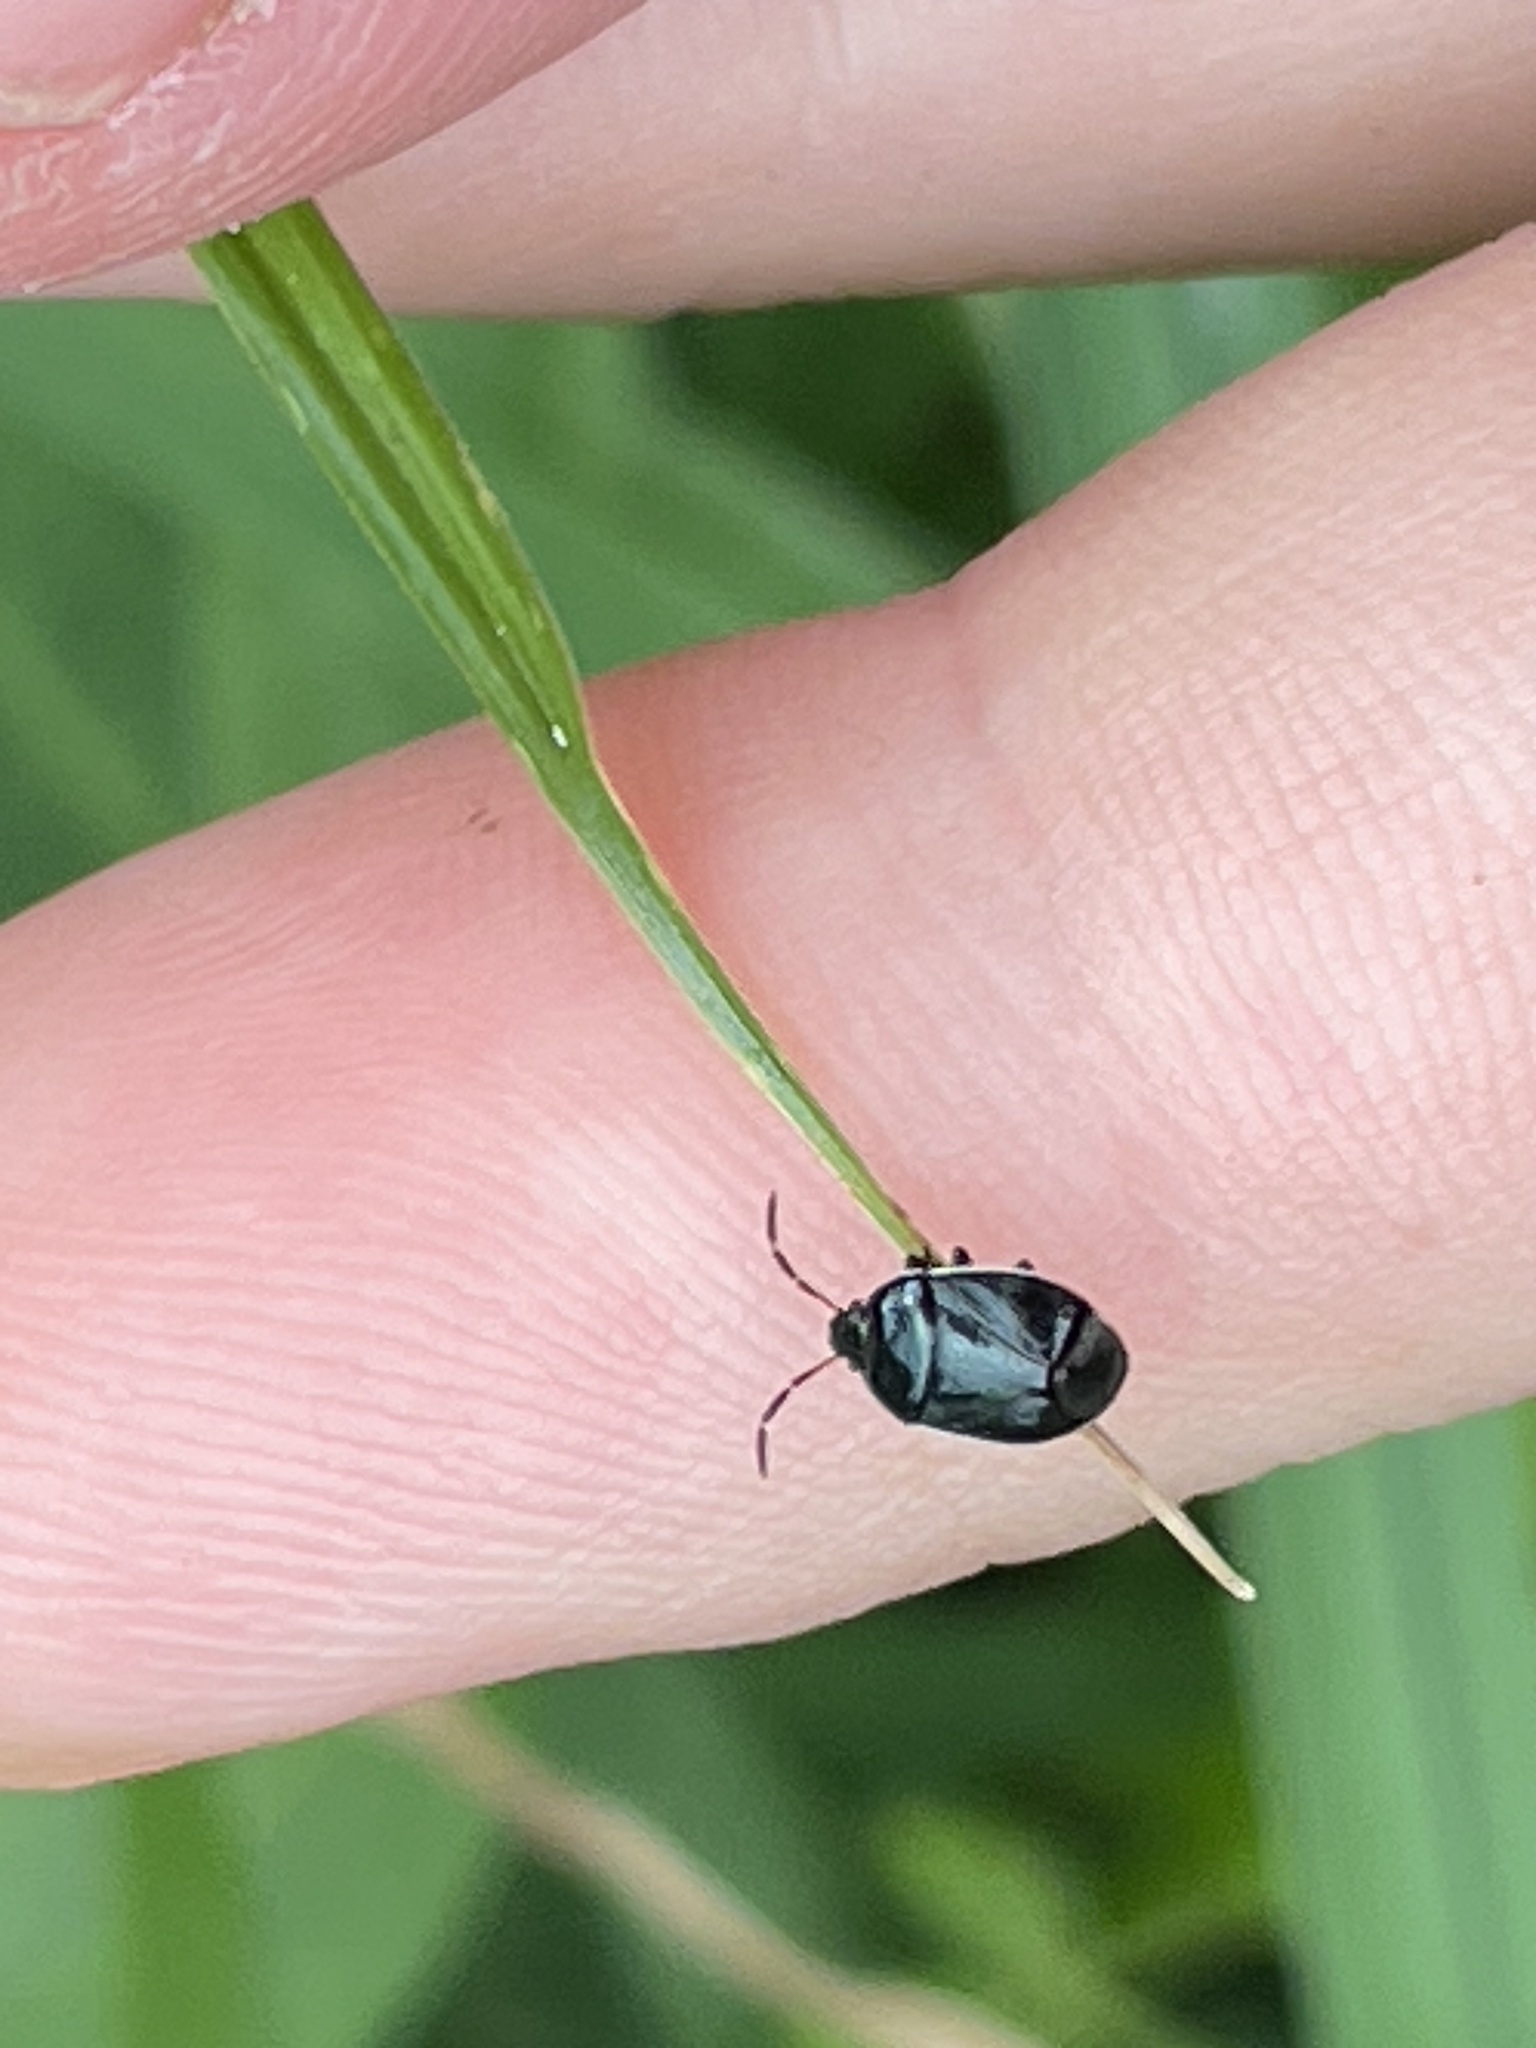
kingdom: Animalia
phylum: Arthropoda
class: Insecta
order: Hemiptera
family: Cydnidae
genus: Sehirus
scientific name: Sehirus cinctus
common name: White-margined burrower bug
